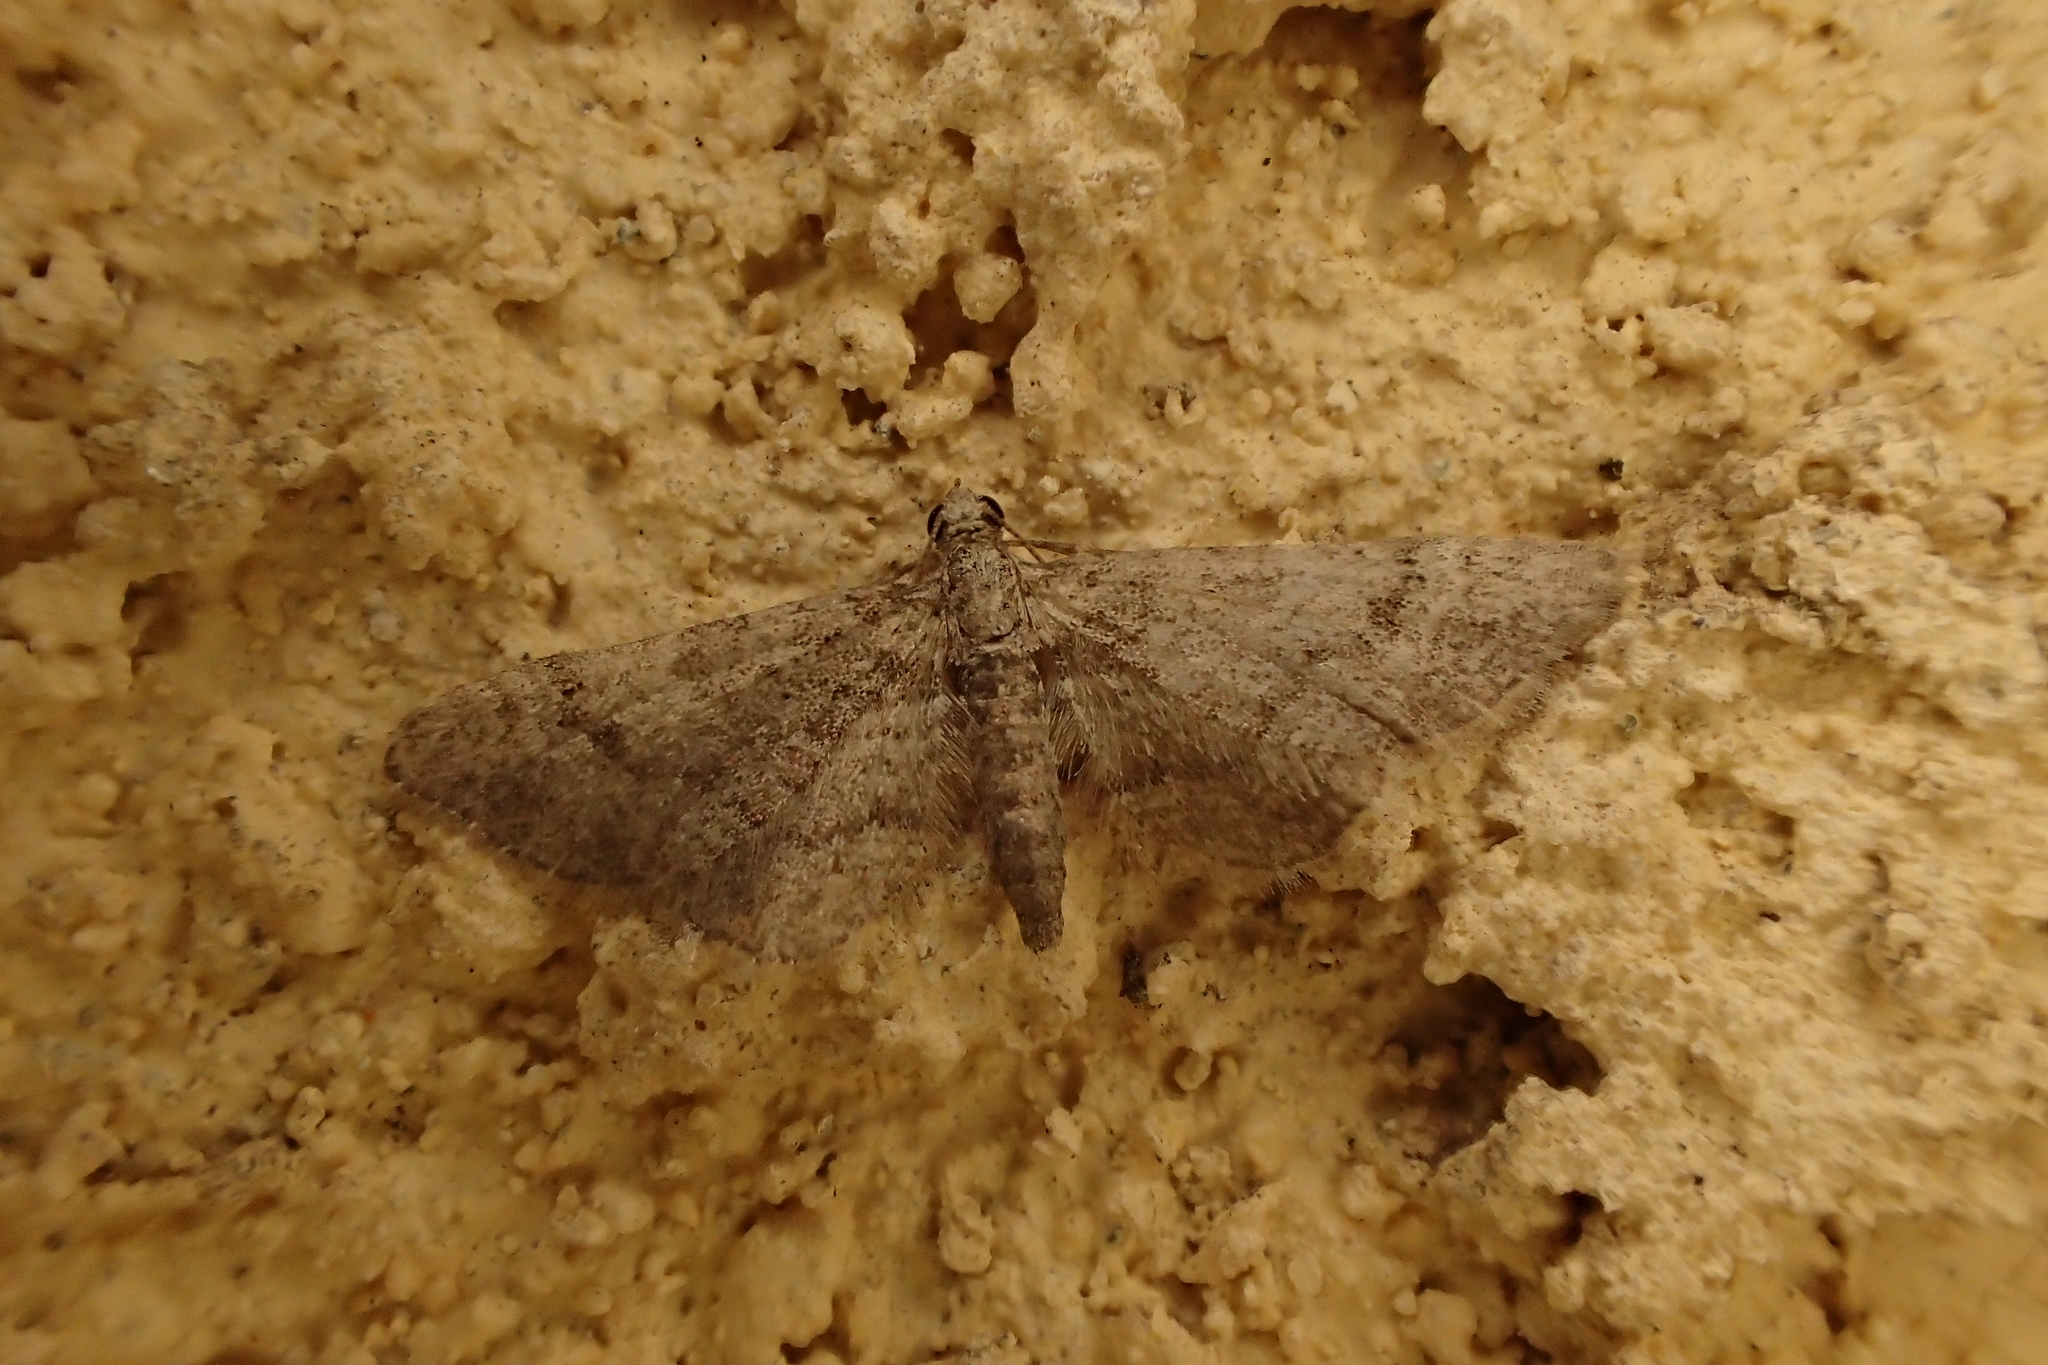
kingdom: Animalia
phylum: Arthropoda
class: Insecta
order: Lepidoptera
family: Geometridae
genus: Gymnoscelis
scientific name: Gymnoscelis rufifasciata
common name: Double-striped pug
